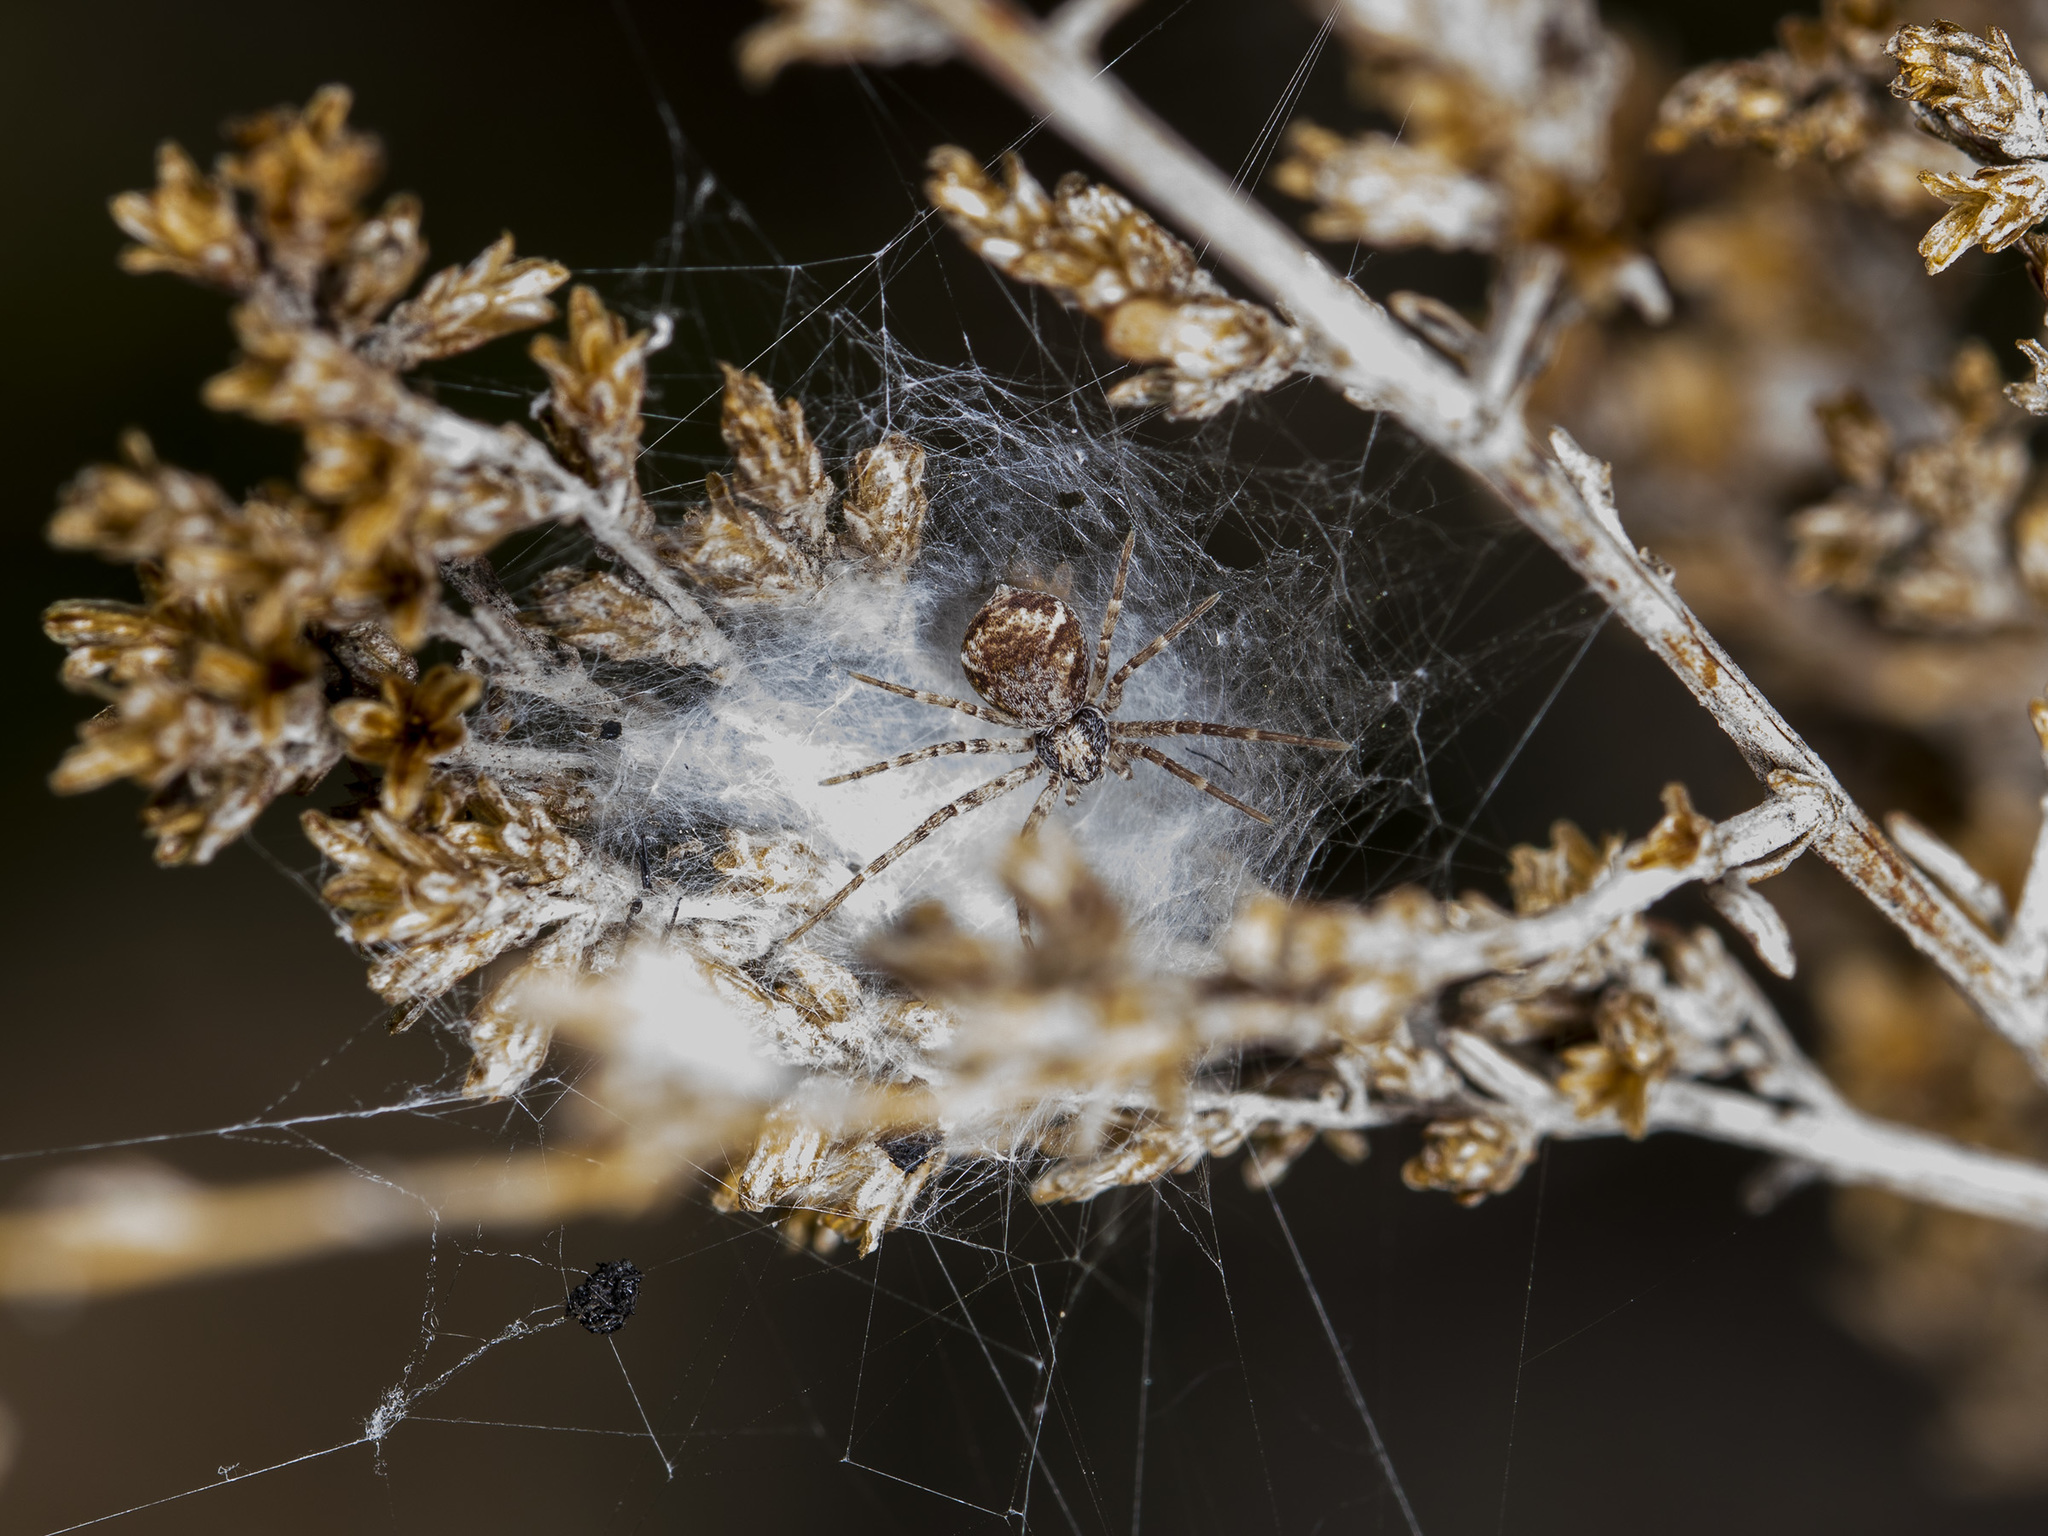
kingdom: Animalia
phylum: Arthropoda
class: Arachnida
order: Araneae
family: Philodromidae
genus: Rhysodromus
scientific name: Rhysodromus pictus
